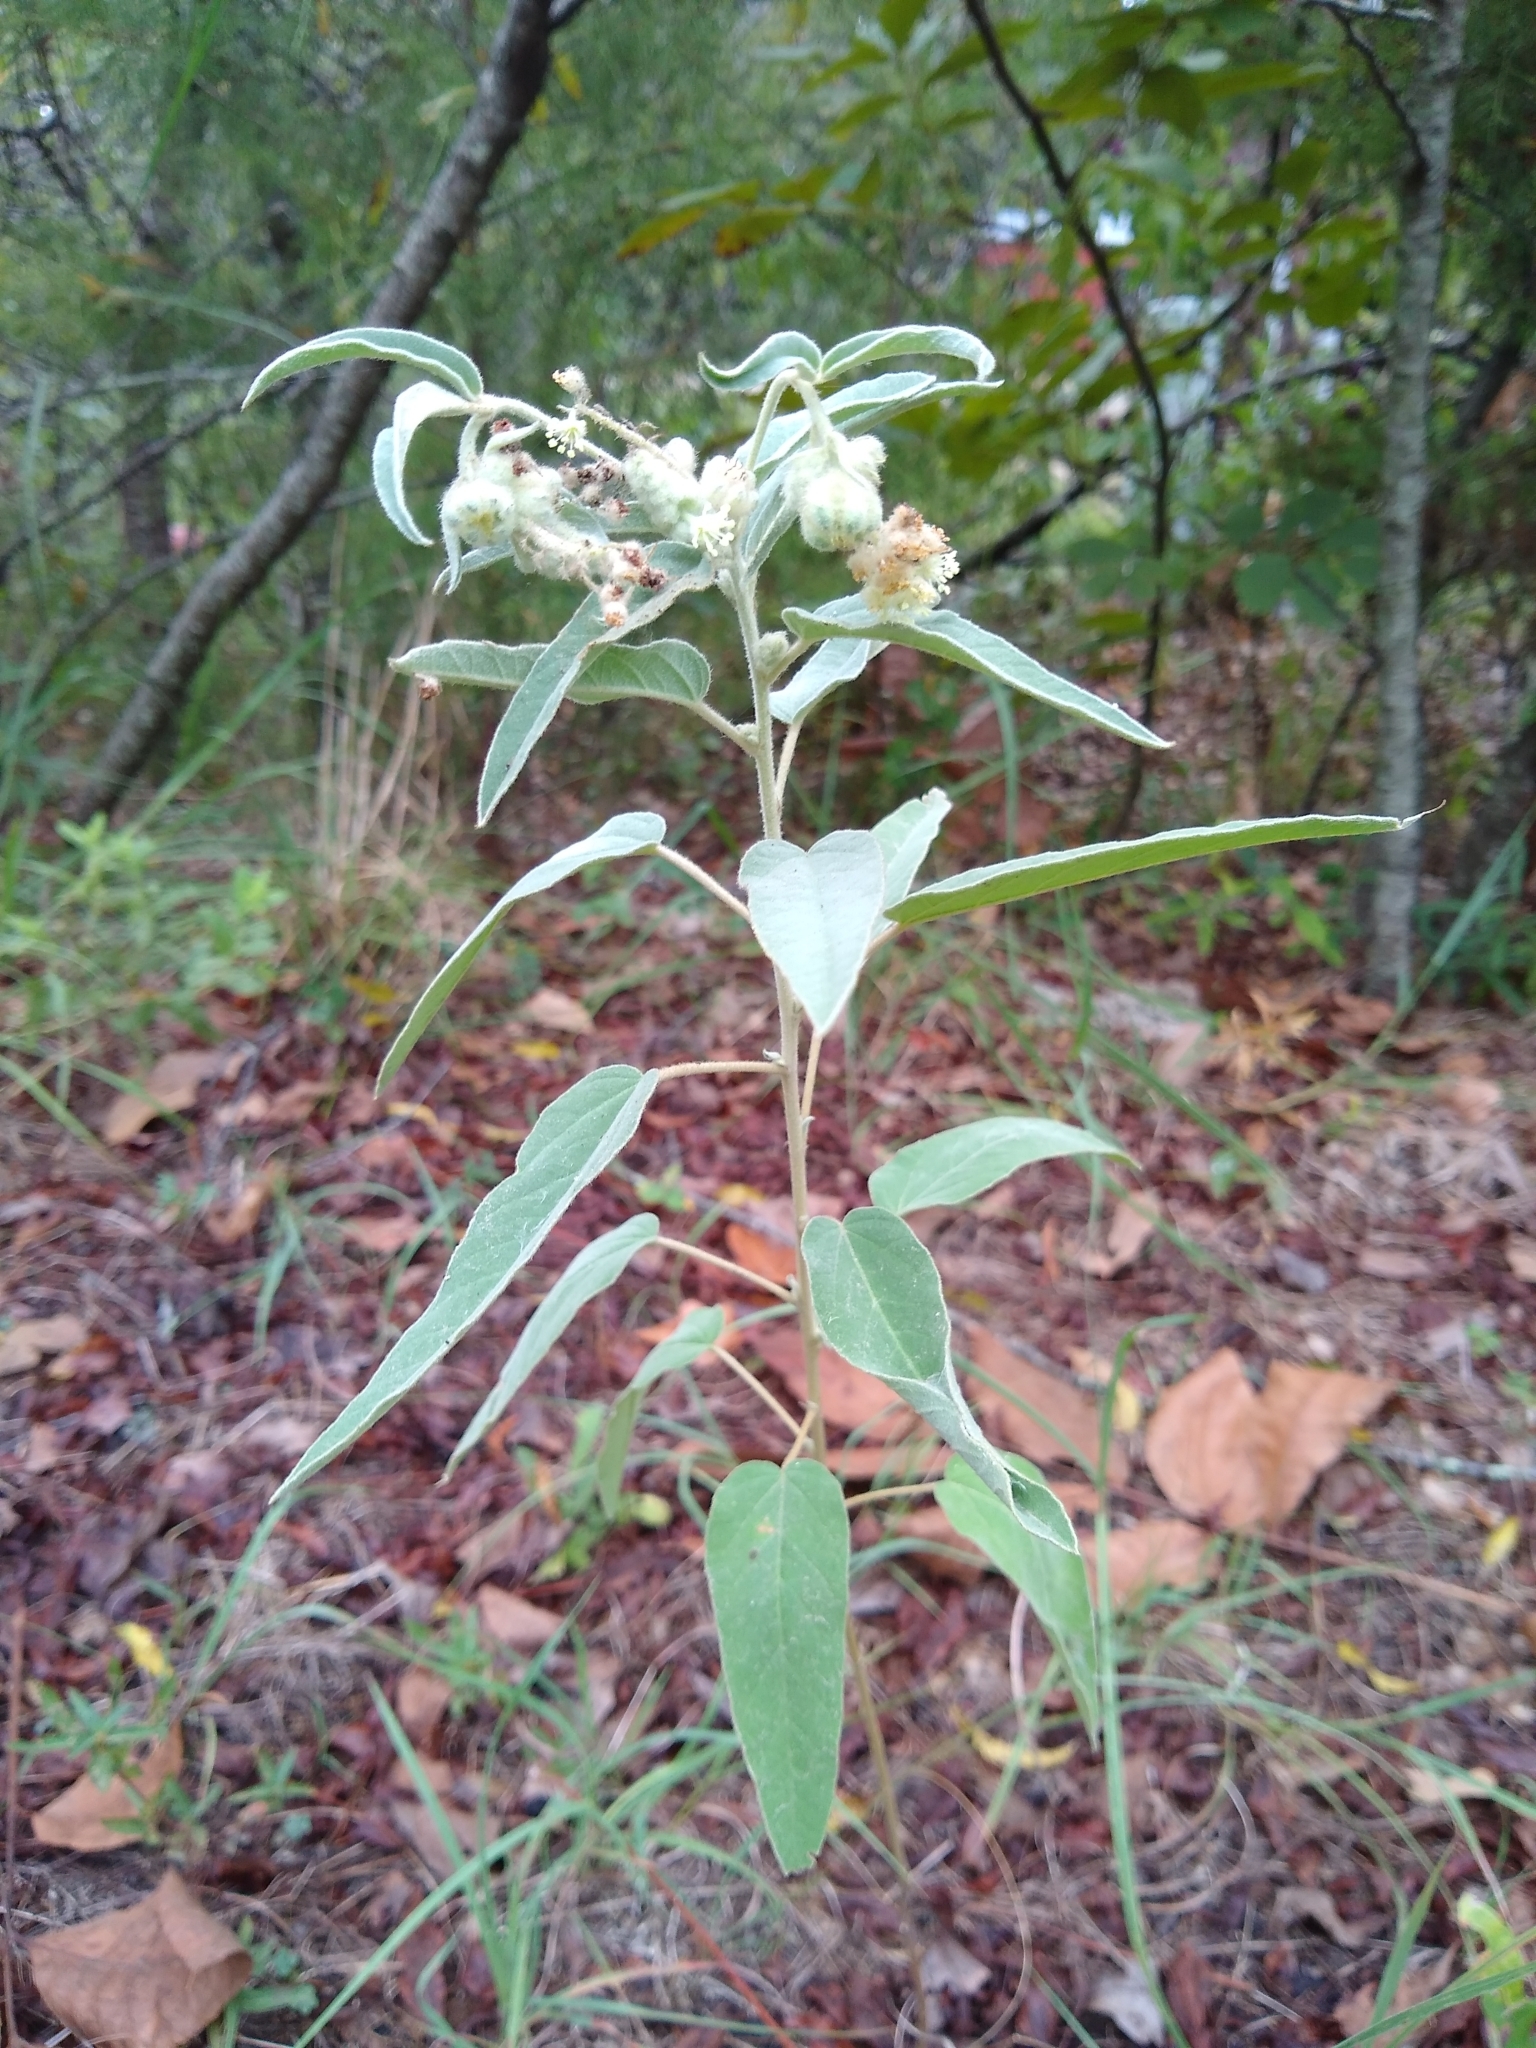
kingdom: Plantae
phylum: Tracheophyta
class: Magnoliopsida
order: Malpighiales
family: Euphorbiaceae
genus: Croton
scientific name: Croton lindheimeri
